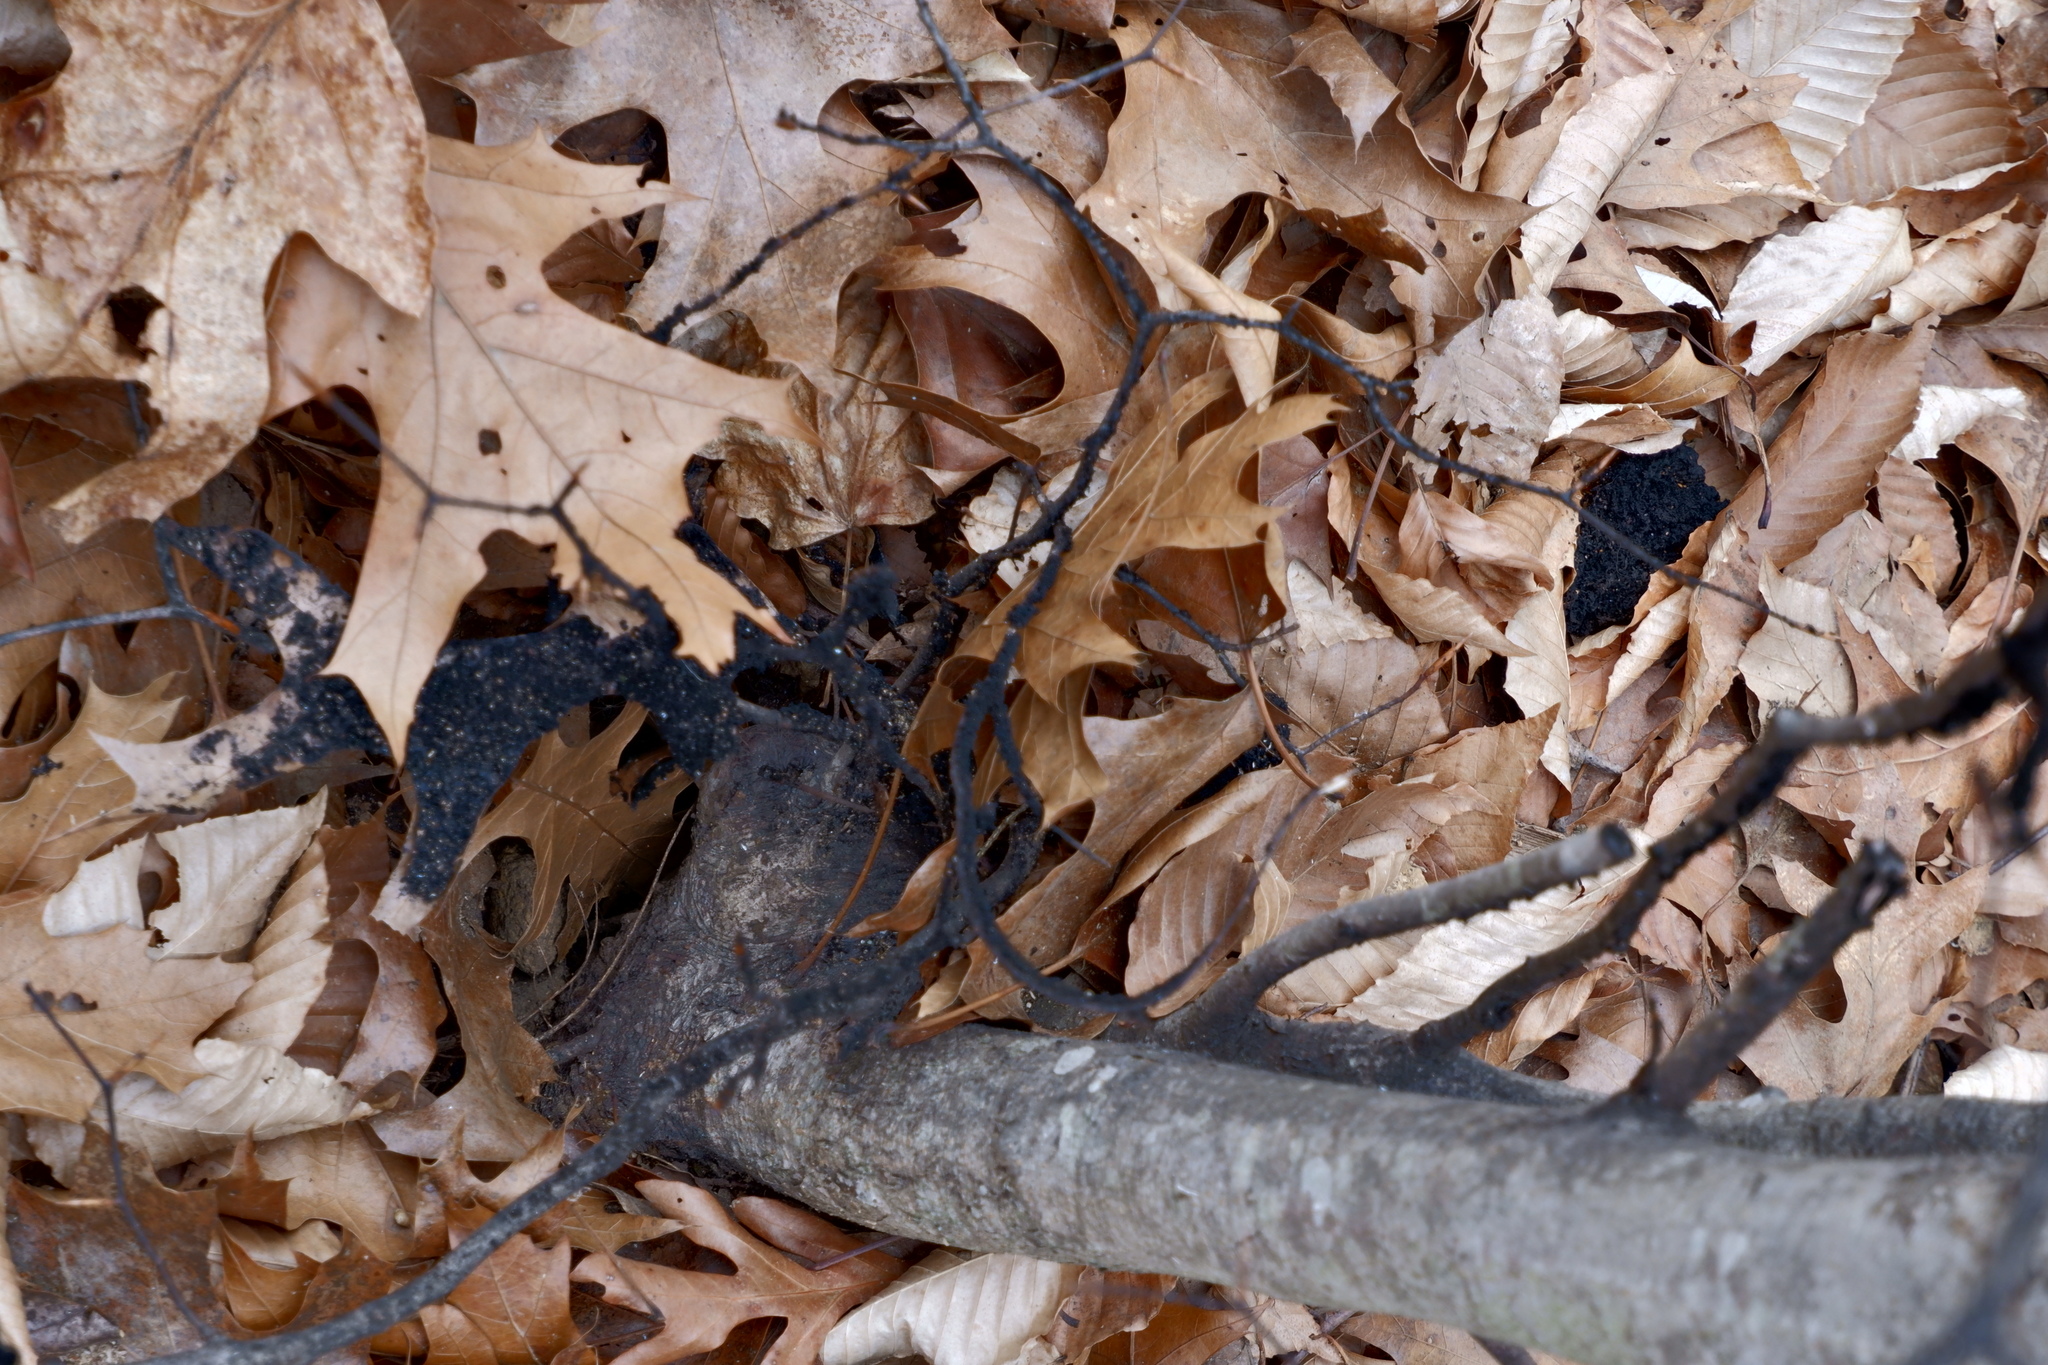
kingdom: Fungi
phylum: Ascomycota
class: Dothideomycetes
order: Capnodiales
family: Capnodiaceae
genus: Scorias
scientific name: Scorias spongiosa
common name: Black sooty mold
